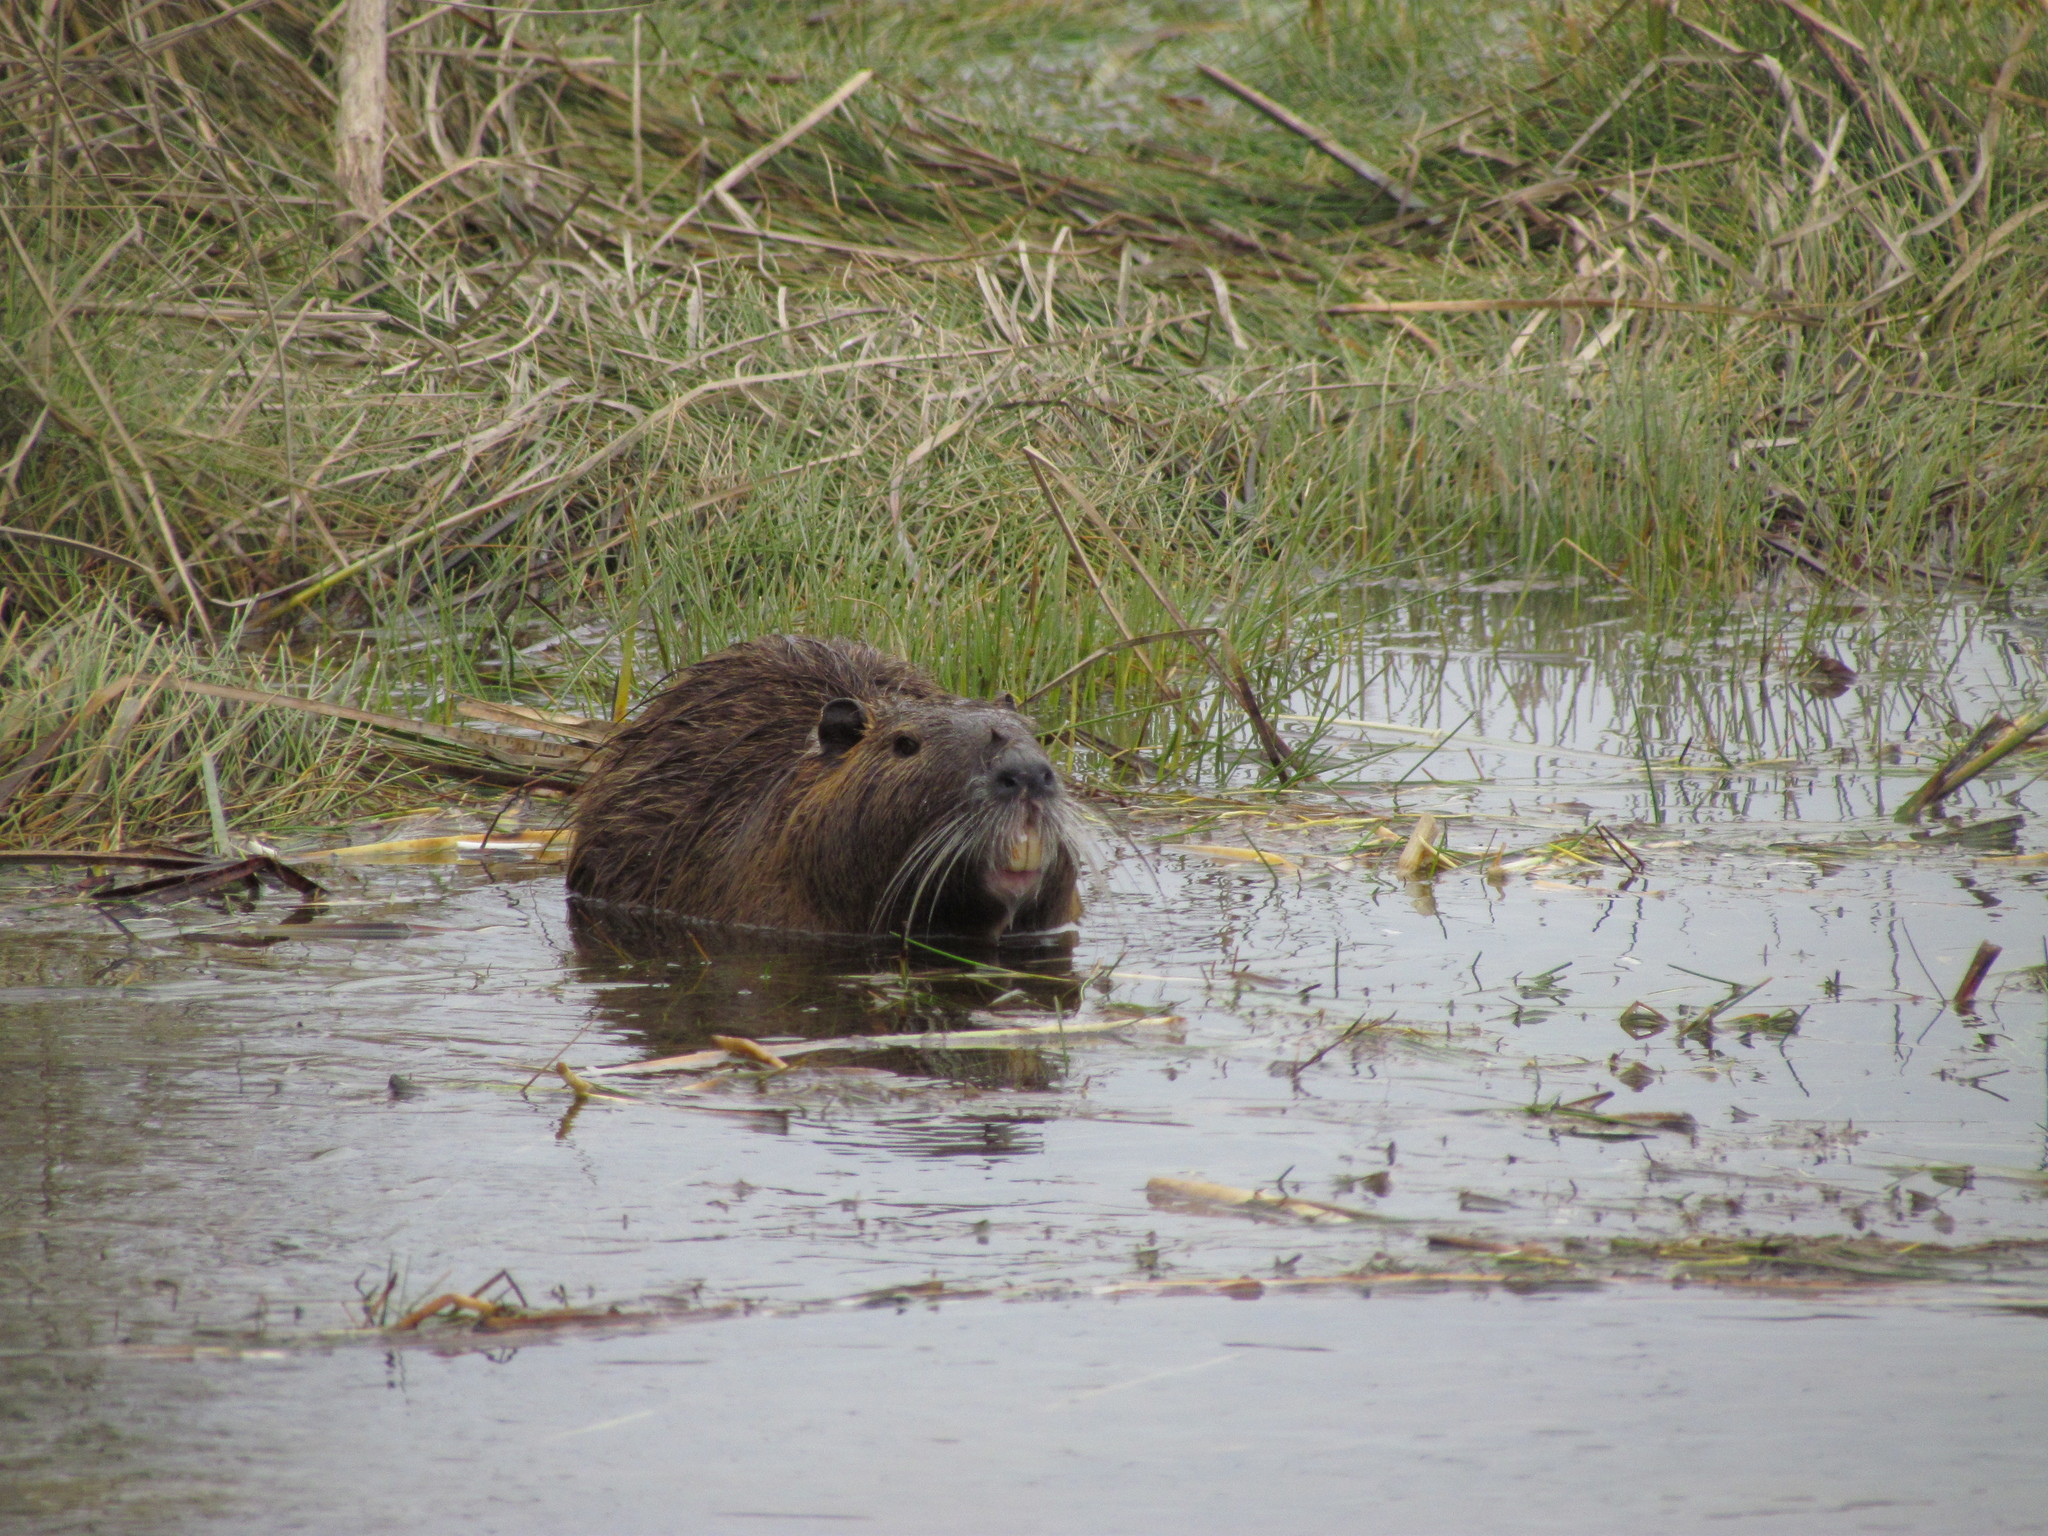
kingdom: Animalia
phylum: Chordata
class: Mammalia
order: Rodentia
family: Myocastoridae
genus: Myocastor
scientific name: Myocastor coypus
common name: Coypu
